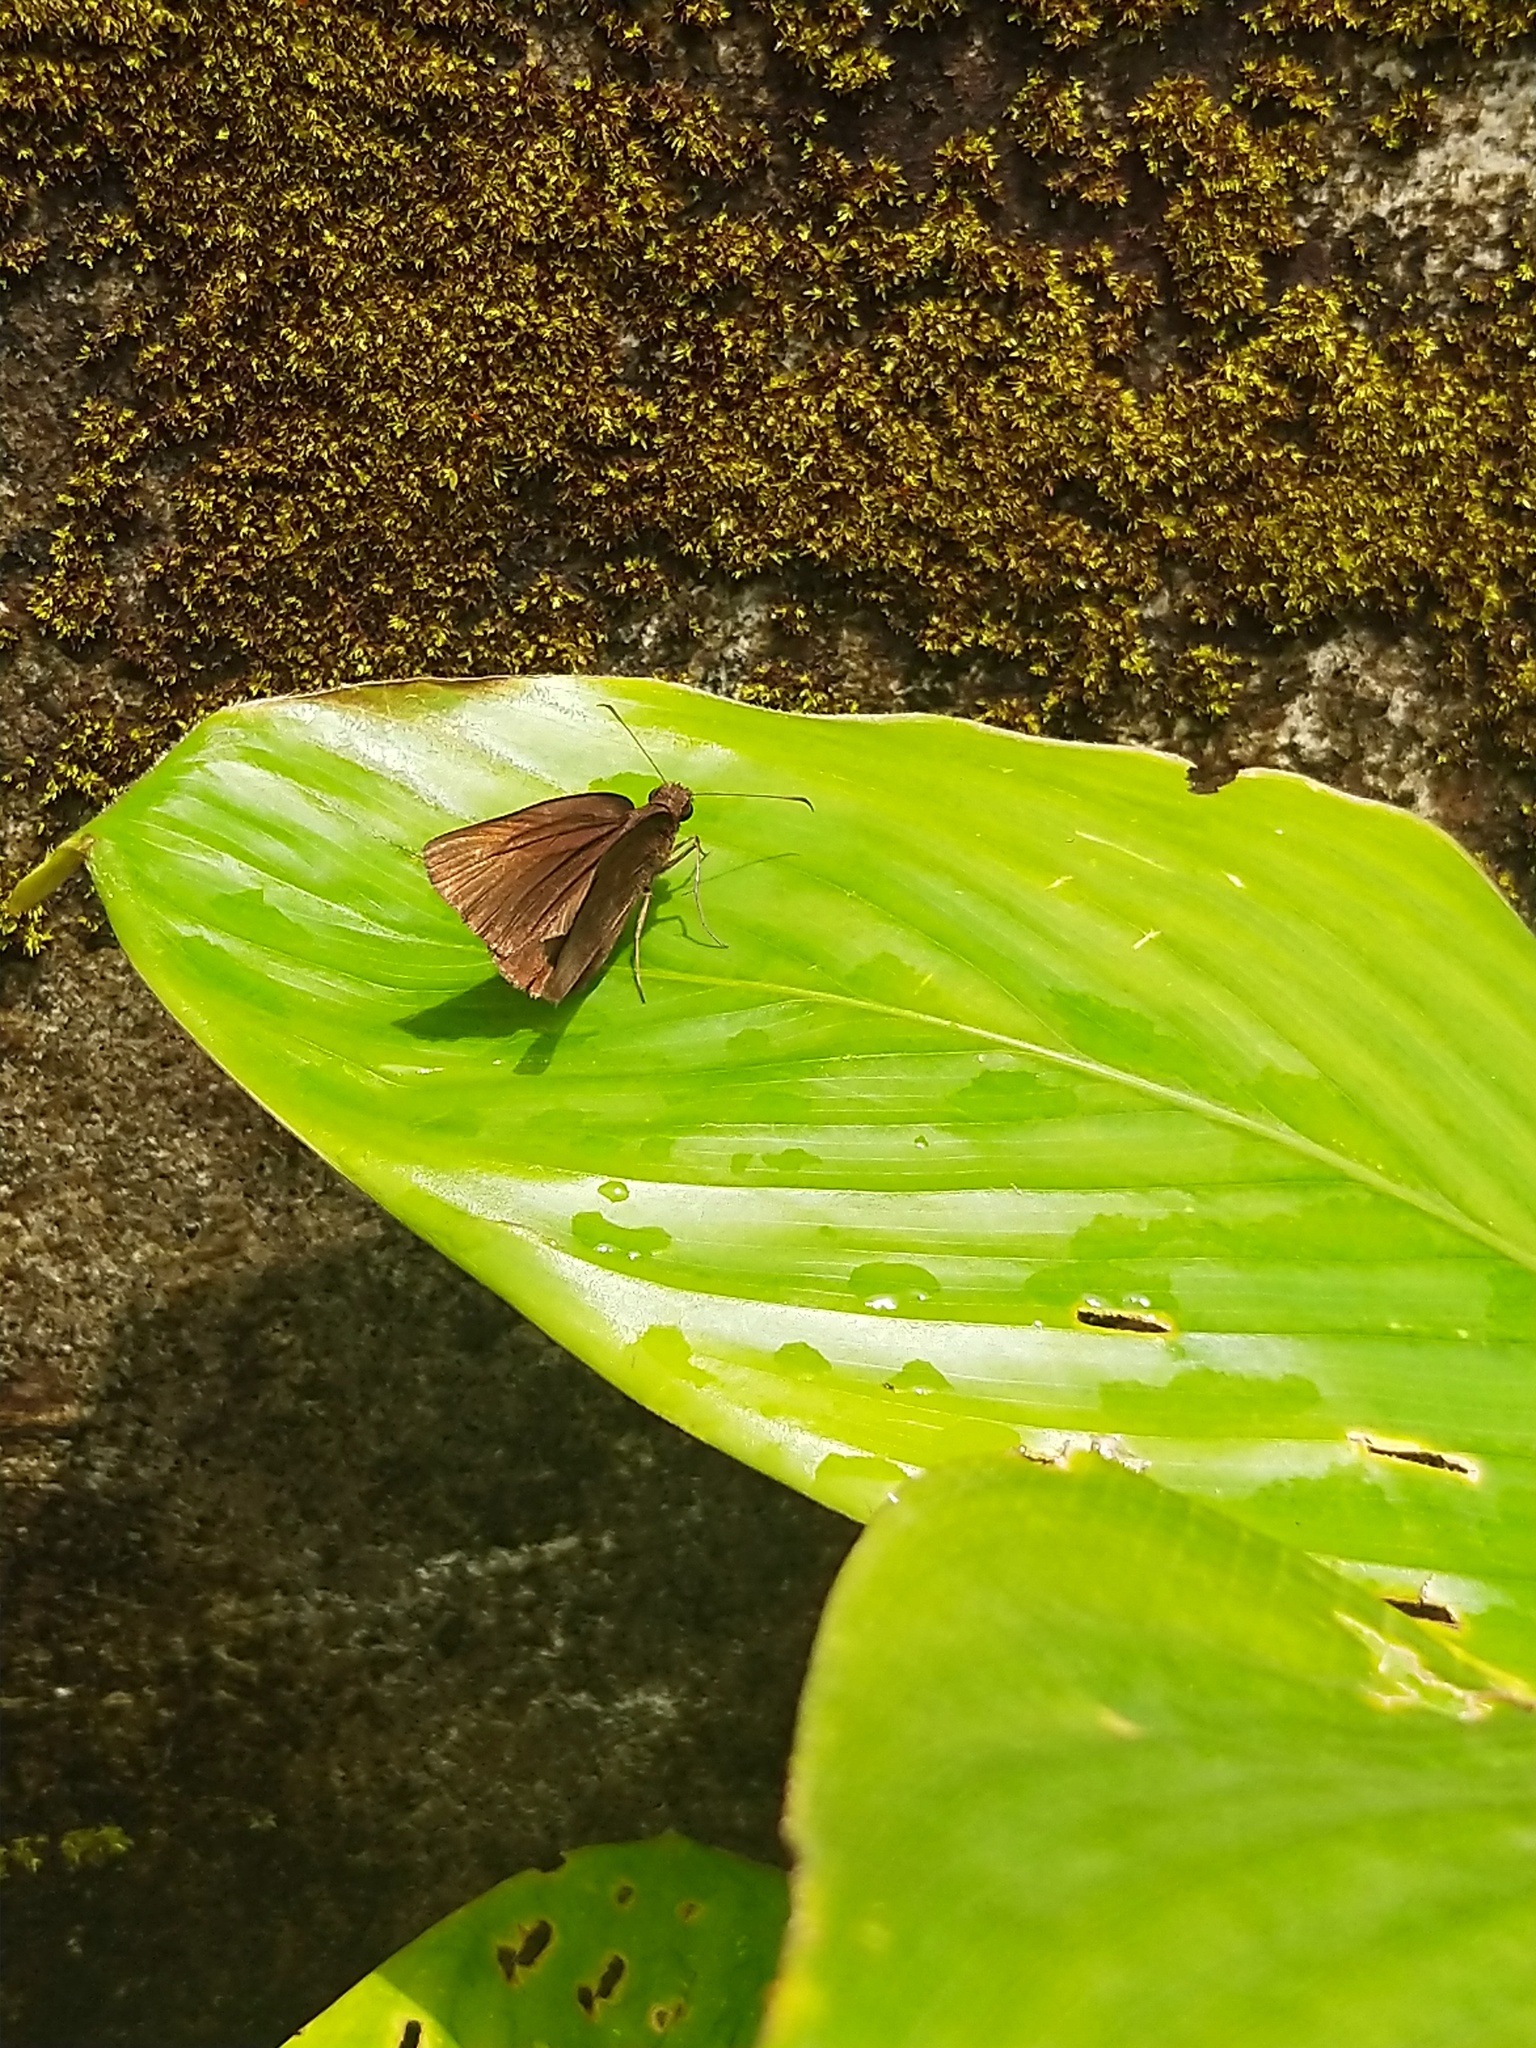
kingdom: Animalia
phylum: Arthropoda
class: Insecta
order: Lepidoptera
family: Hesperiidae
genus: Psolos
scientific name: Psolos fuligo
